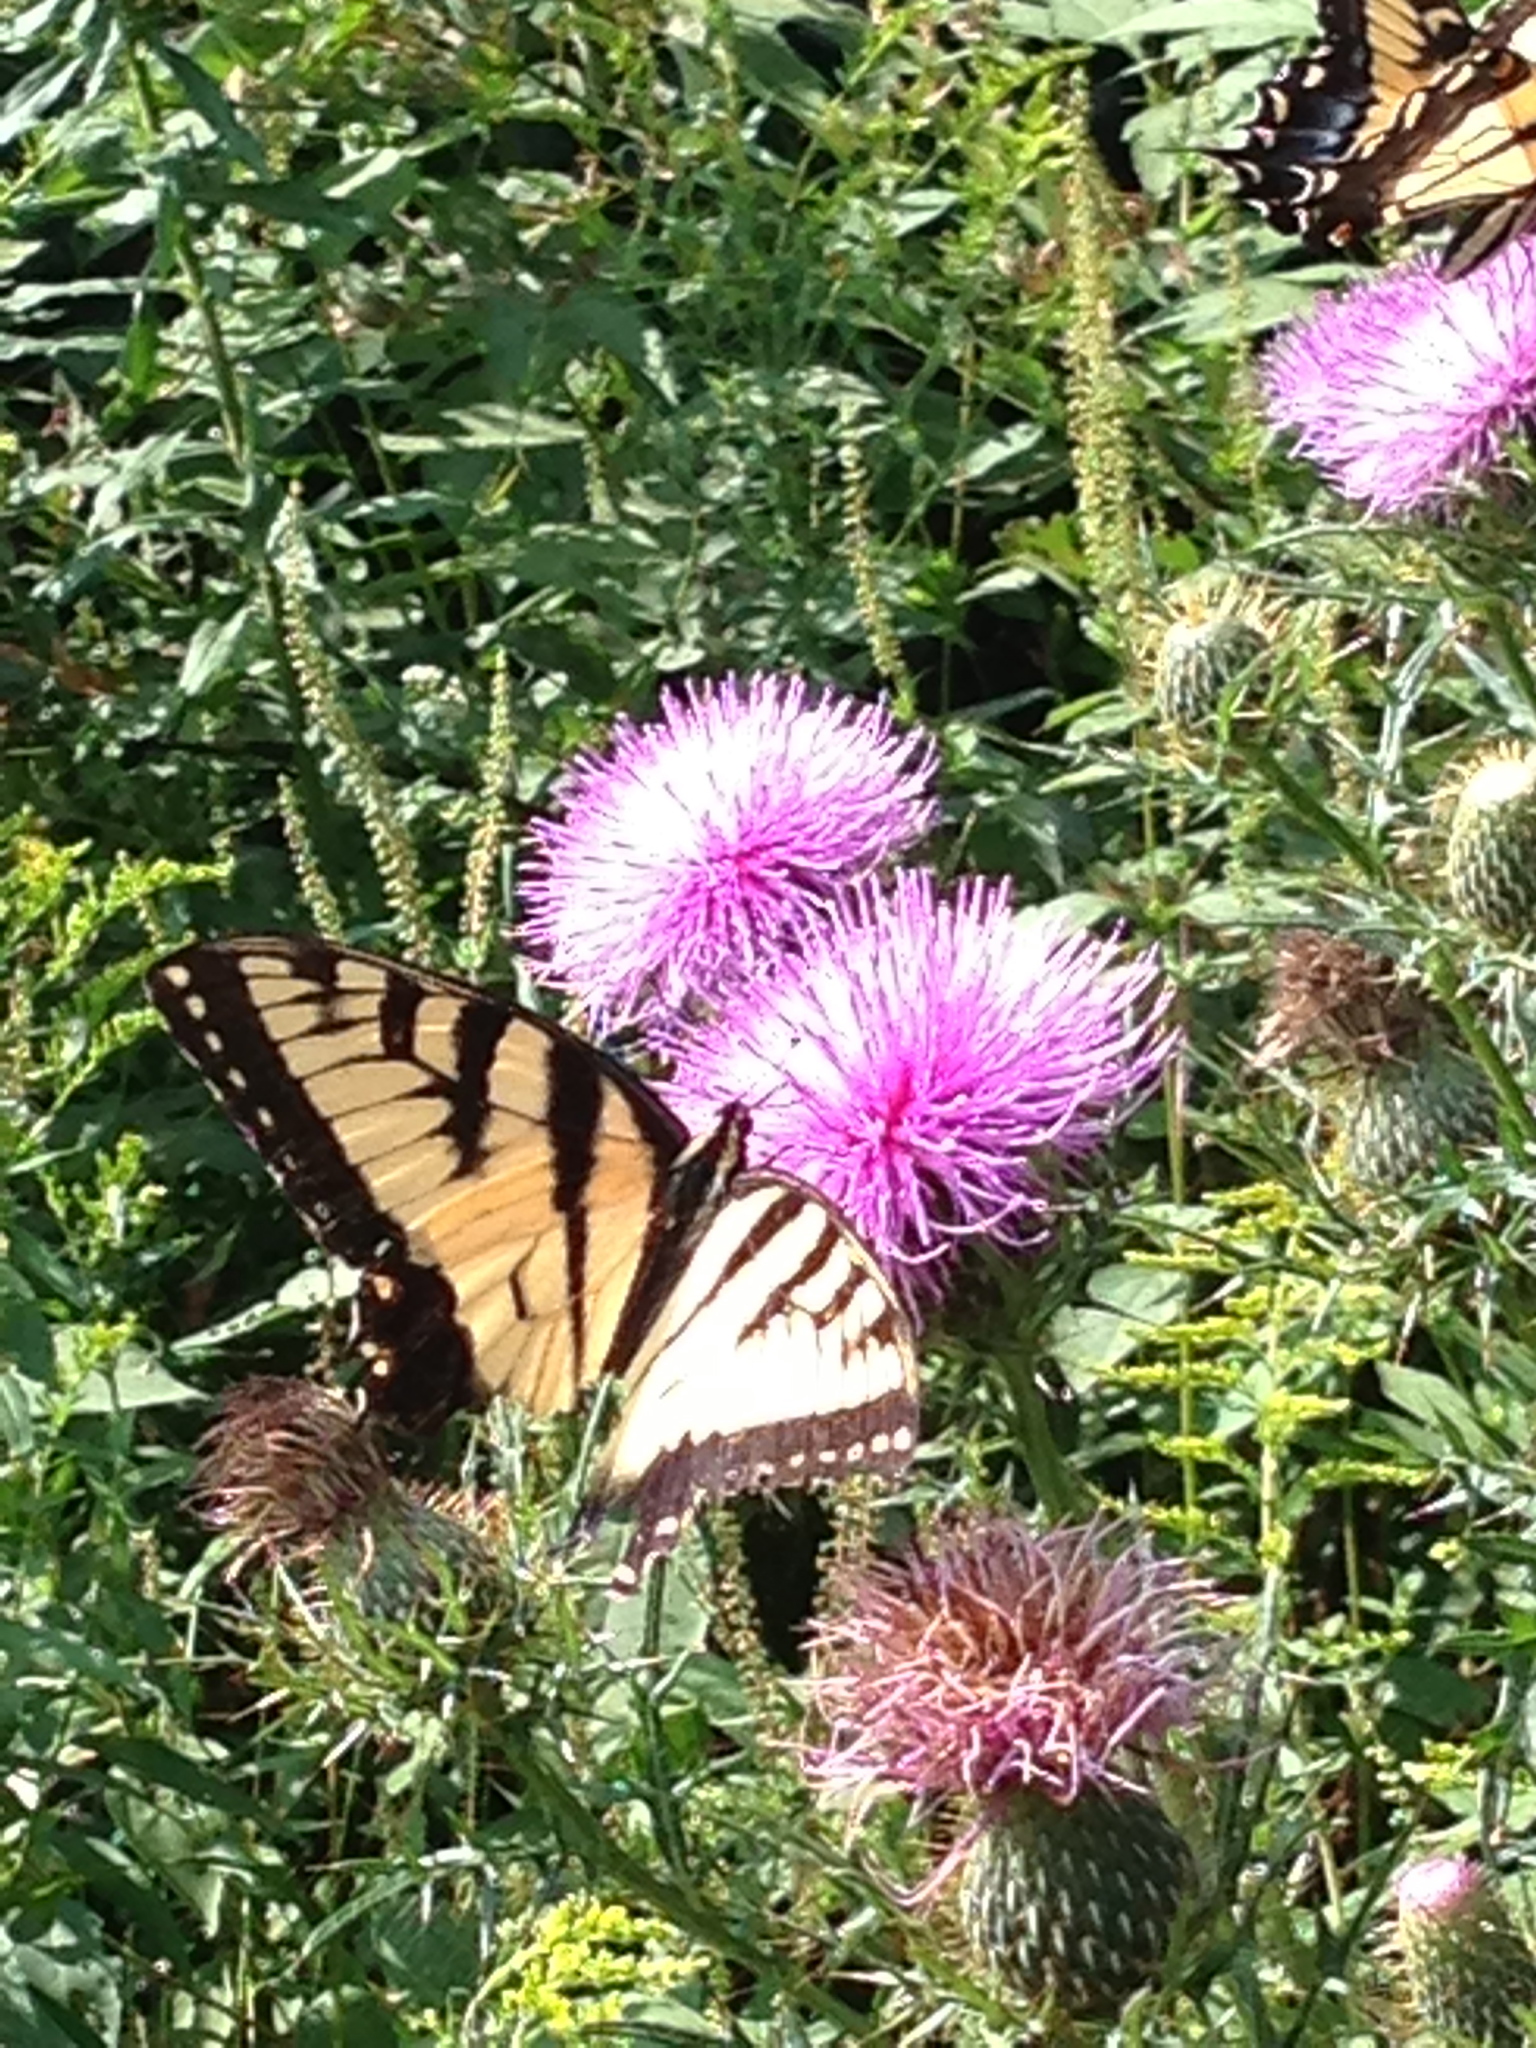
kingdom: Animalia
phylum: Arthropoda
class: Insecta
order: Lepidoptera
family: Papilionidae
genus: Papilio
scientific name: Papilio glaucus
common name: Tiger swallowtail
